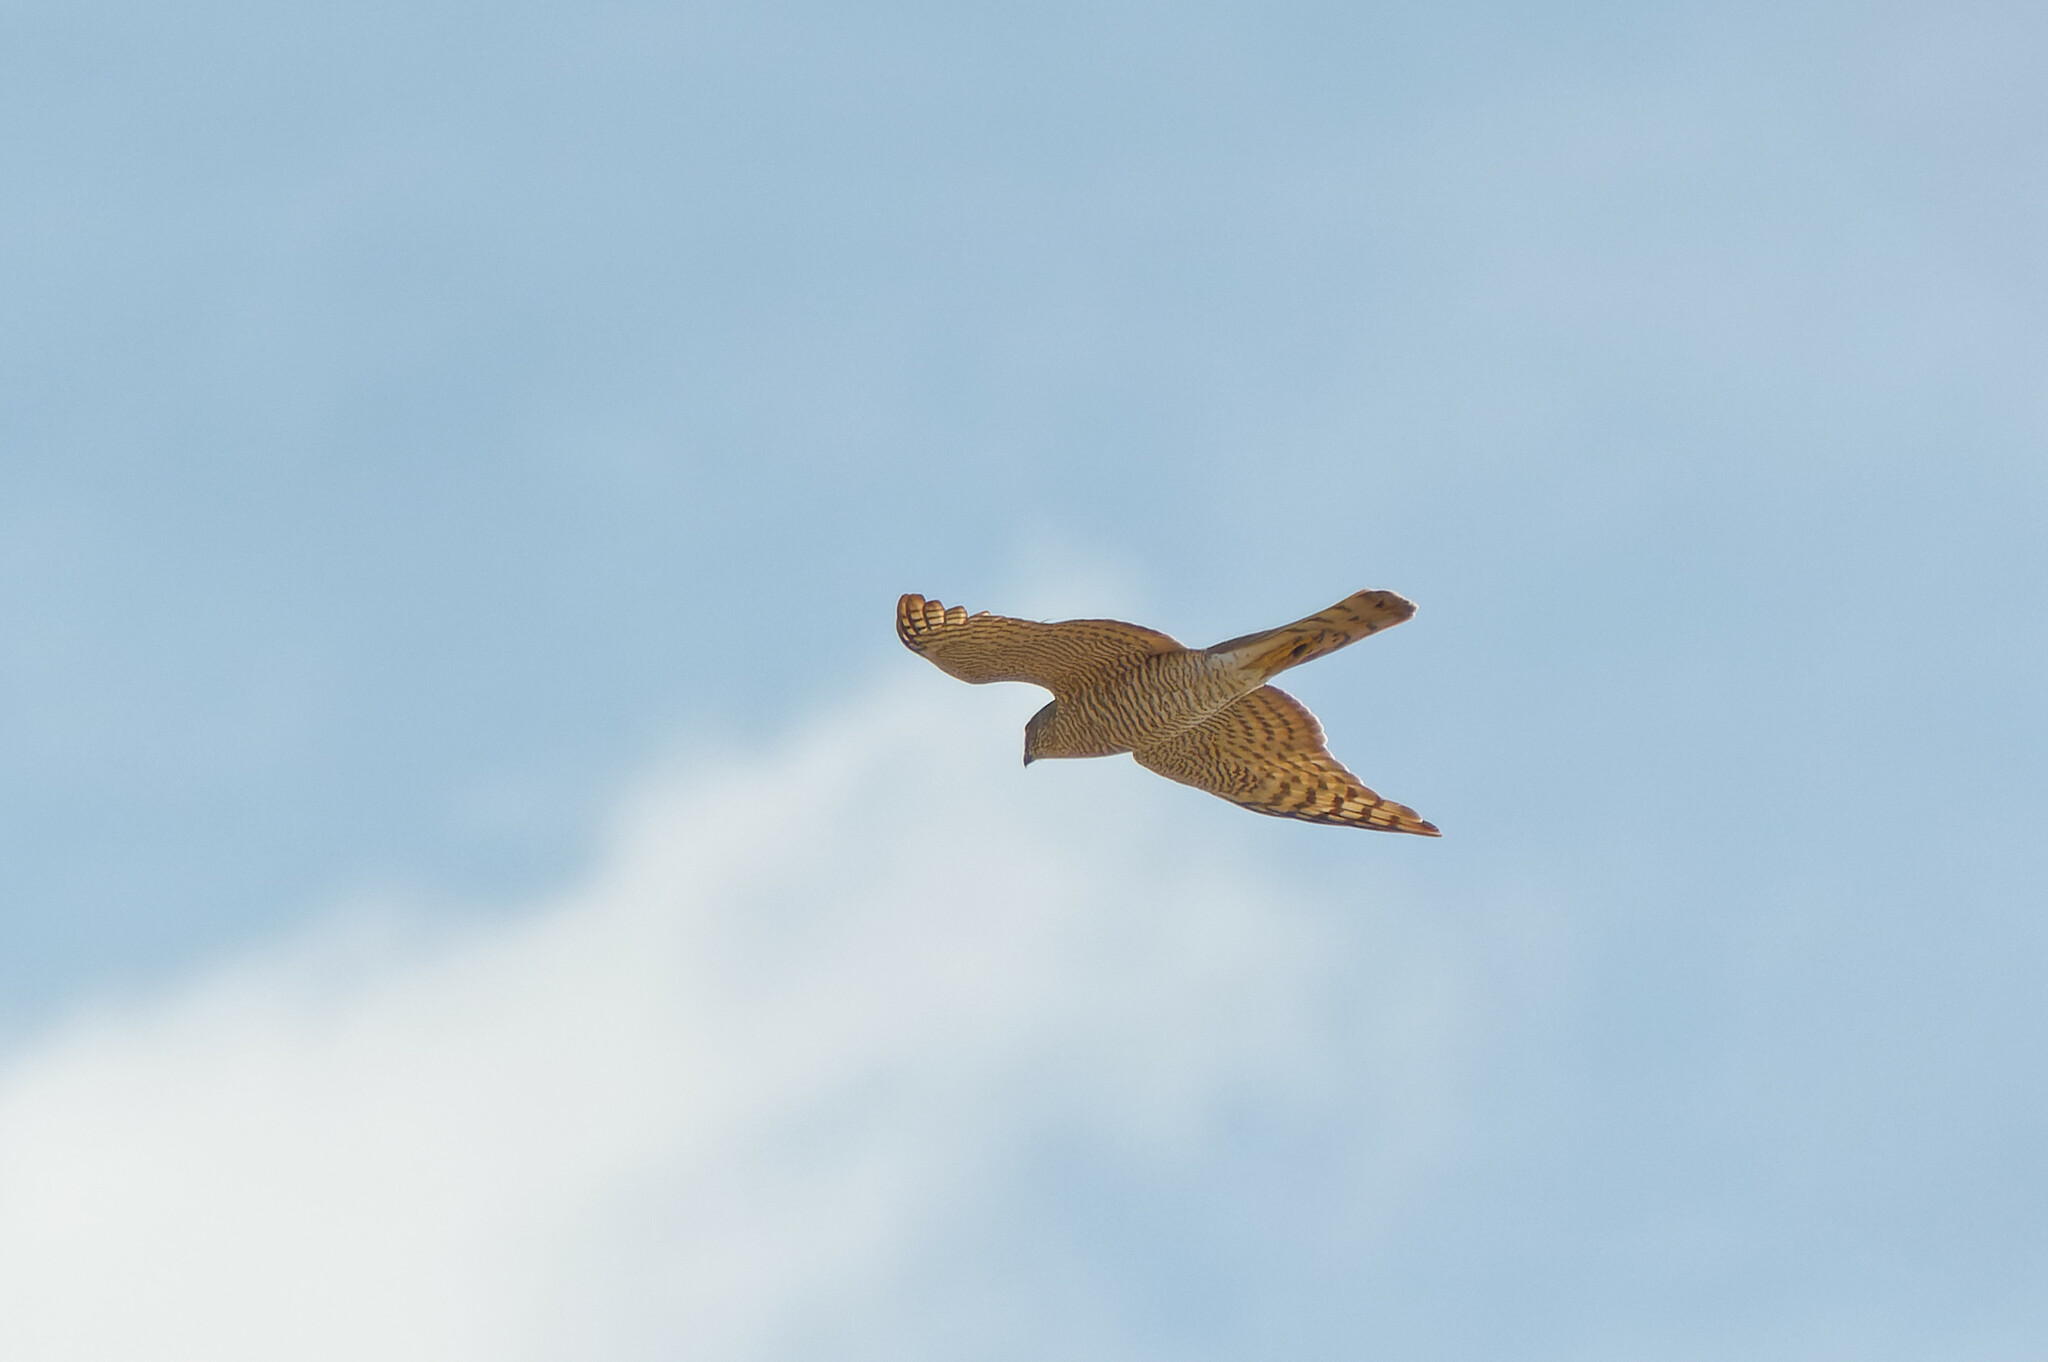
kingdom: Animalia
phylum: Chordata
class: Aves
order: Accipitriformes
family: Accipitridae
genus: Accipiter
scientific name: Accipiter nisus
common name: Eurasian sparrowhawk
